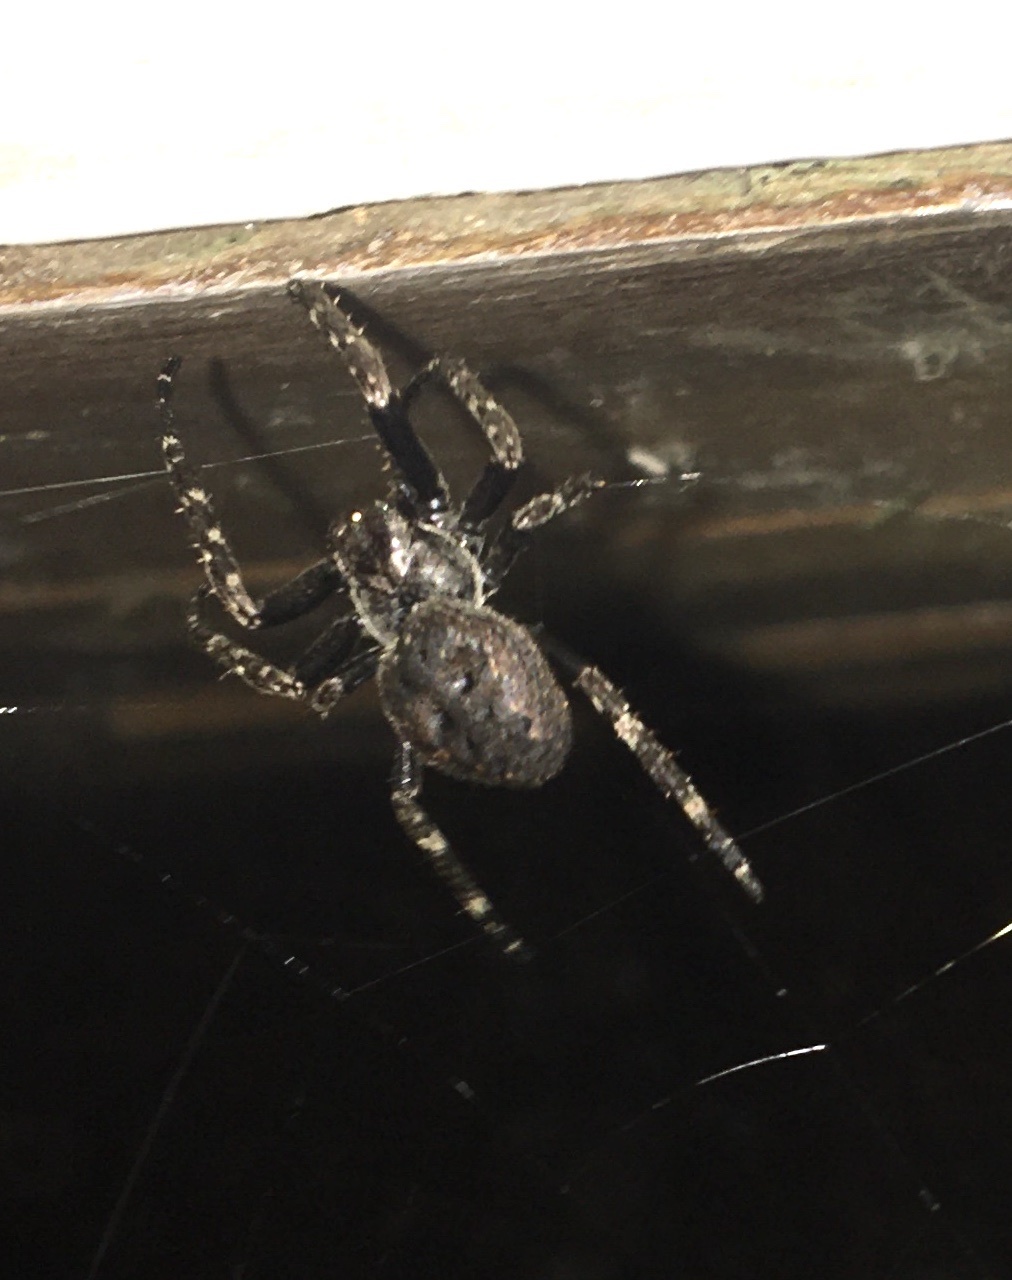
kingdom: Animalia
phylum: Arthropoda
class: Arachnida
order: Araneae
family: Araneidae
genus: Nuctenea
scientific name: Nuctenea umbratica
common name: Toad spider
